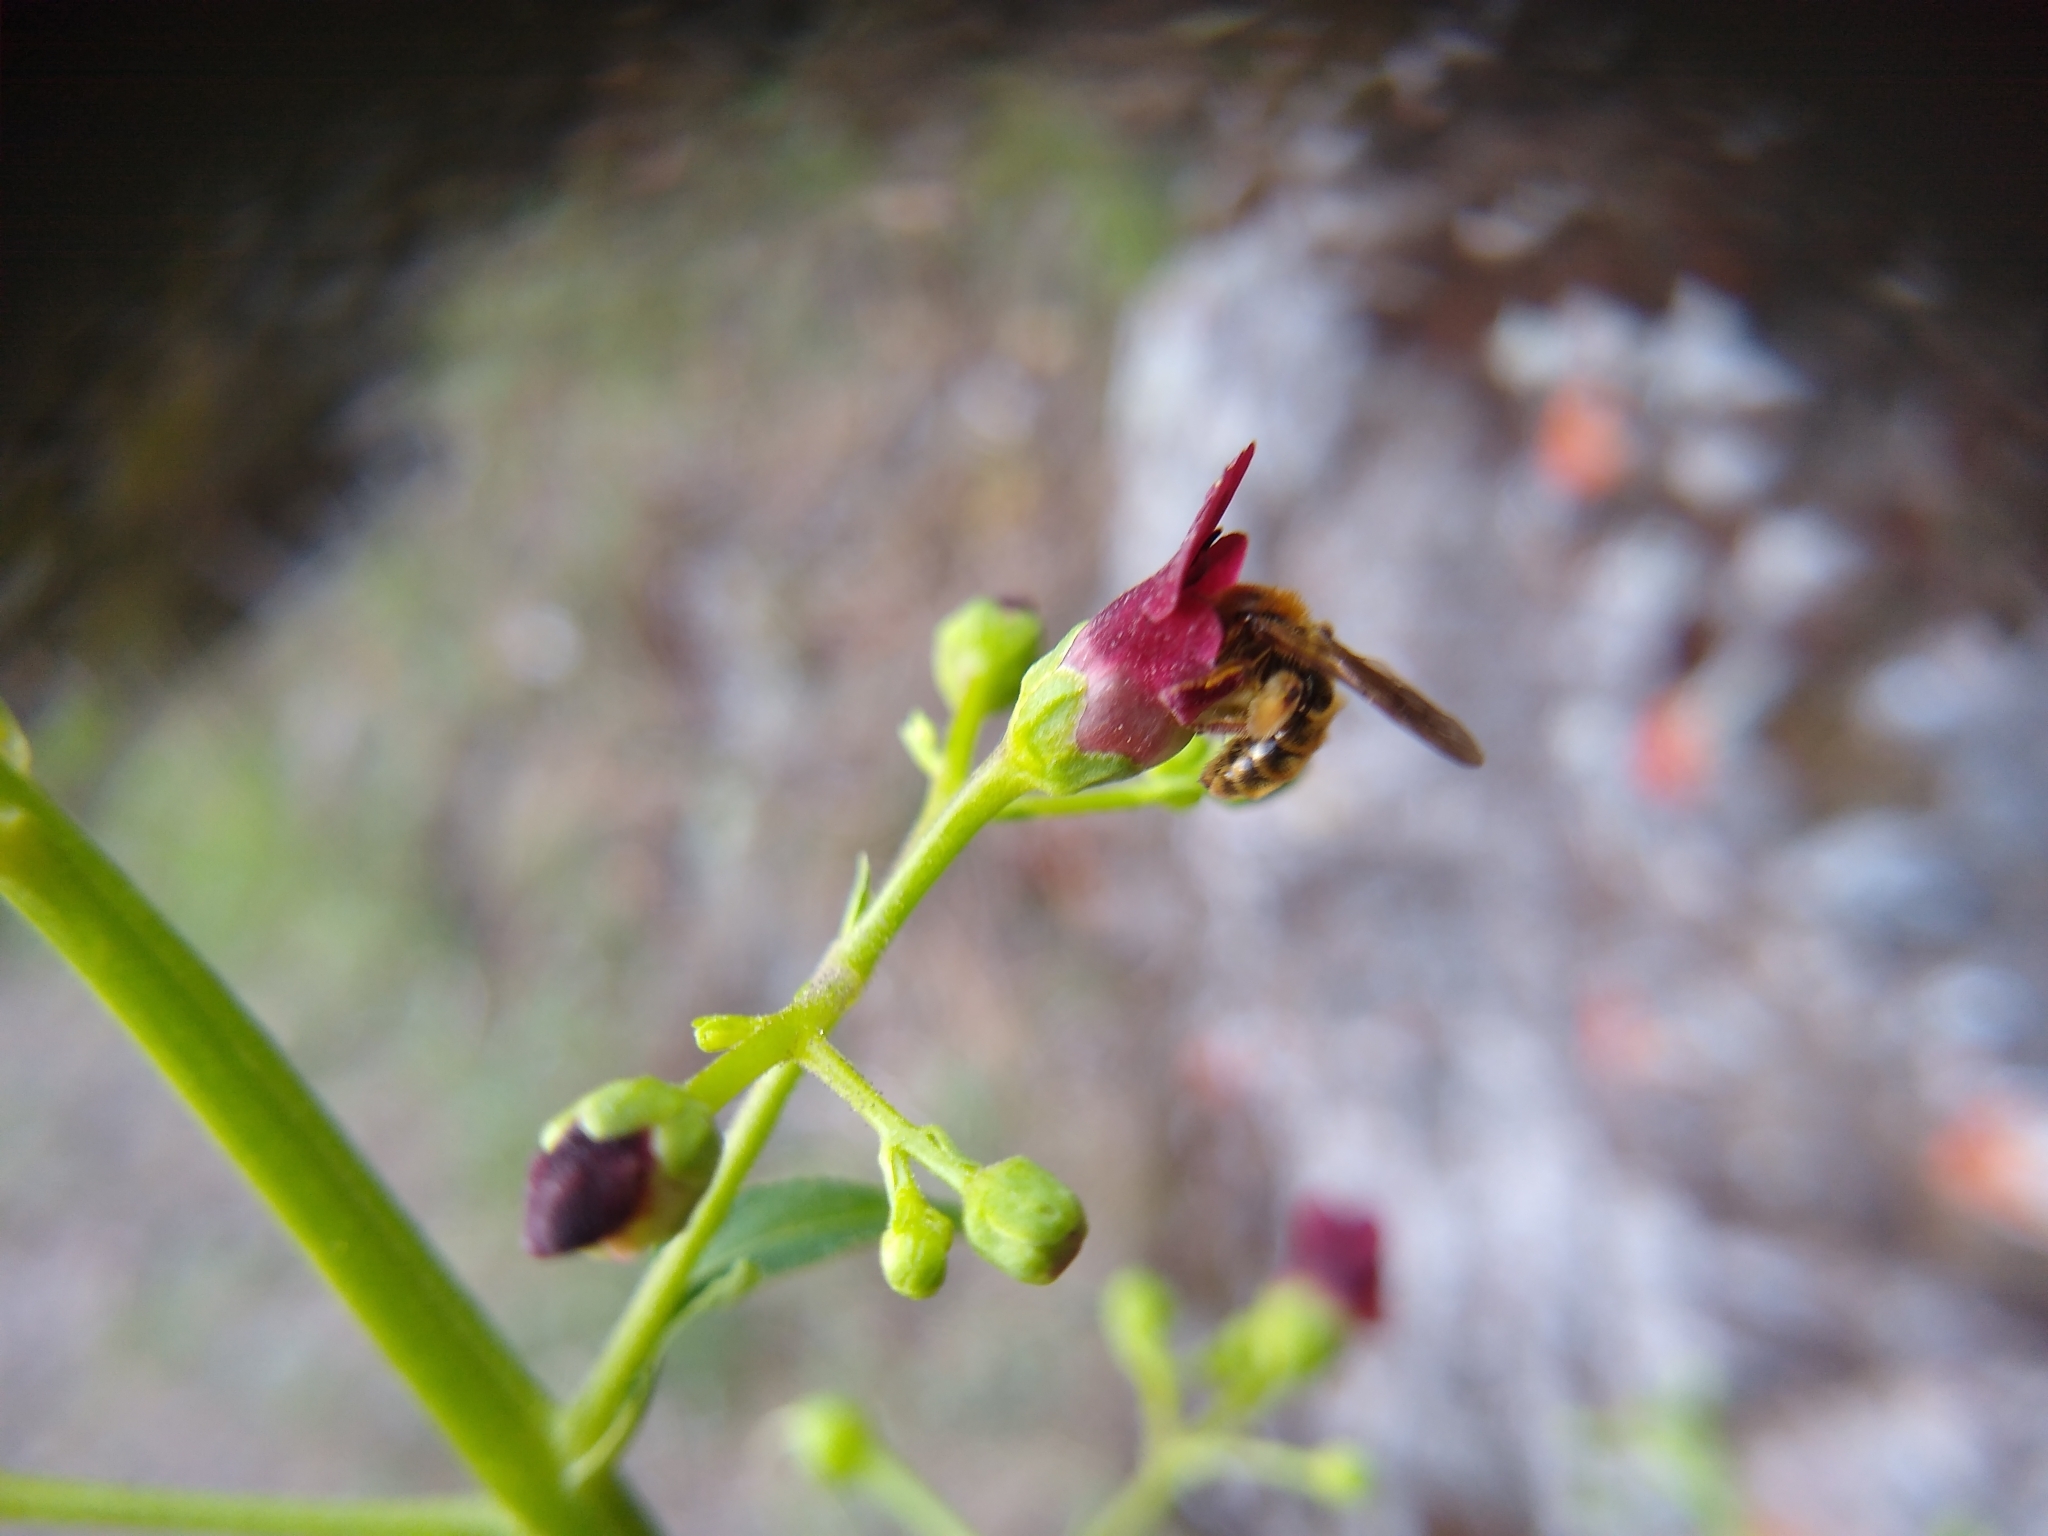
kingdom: Plantae
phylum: Tracheophyta
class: Magnoliopsida
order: Lamiales
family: Scrophulariaceae
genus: Scrophularia
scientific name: Scrophularia californica
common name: California figwort
